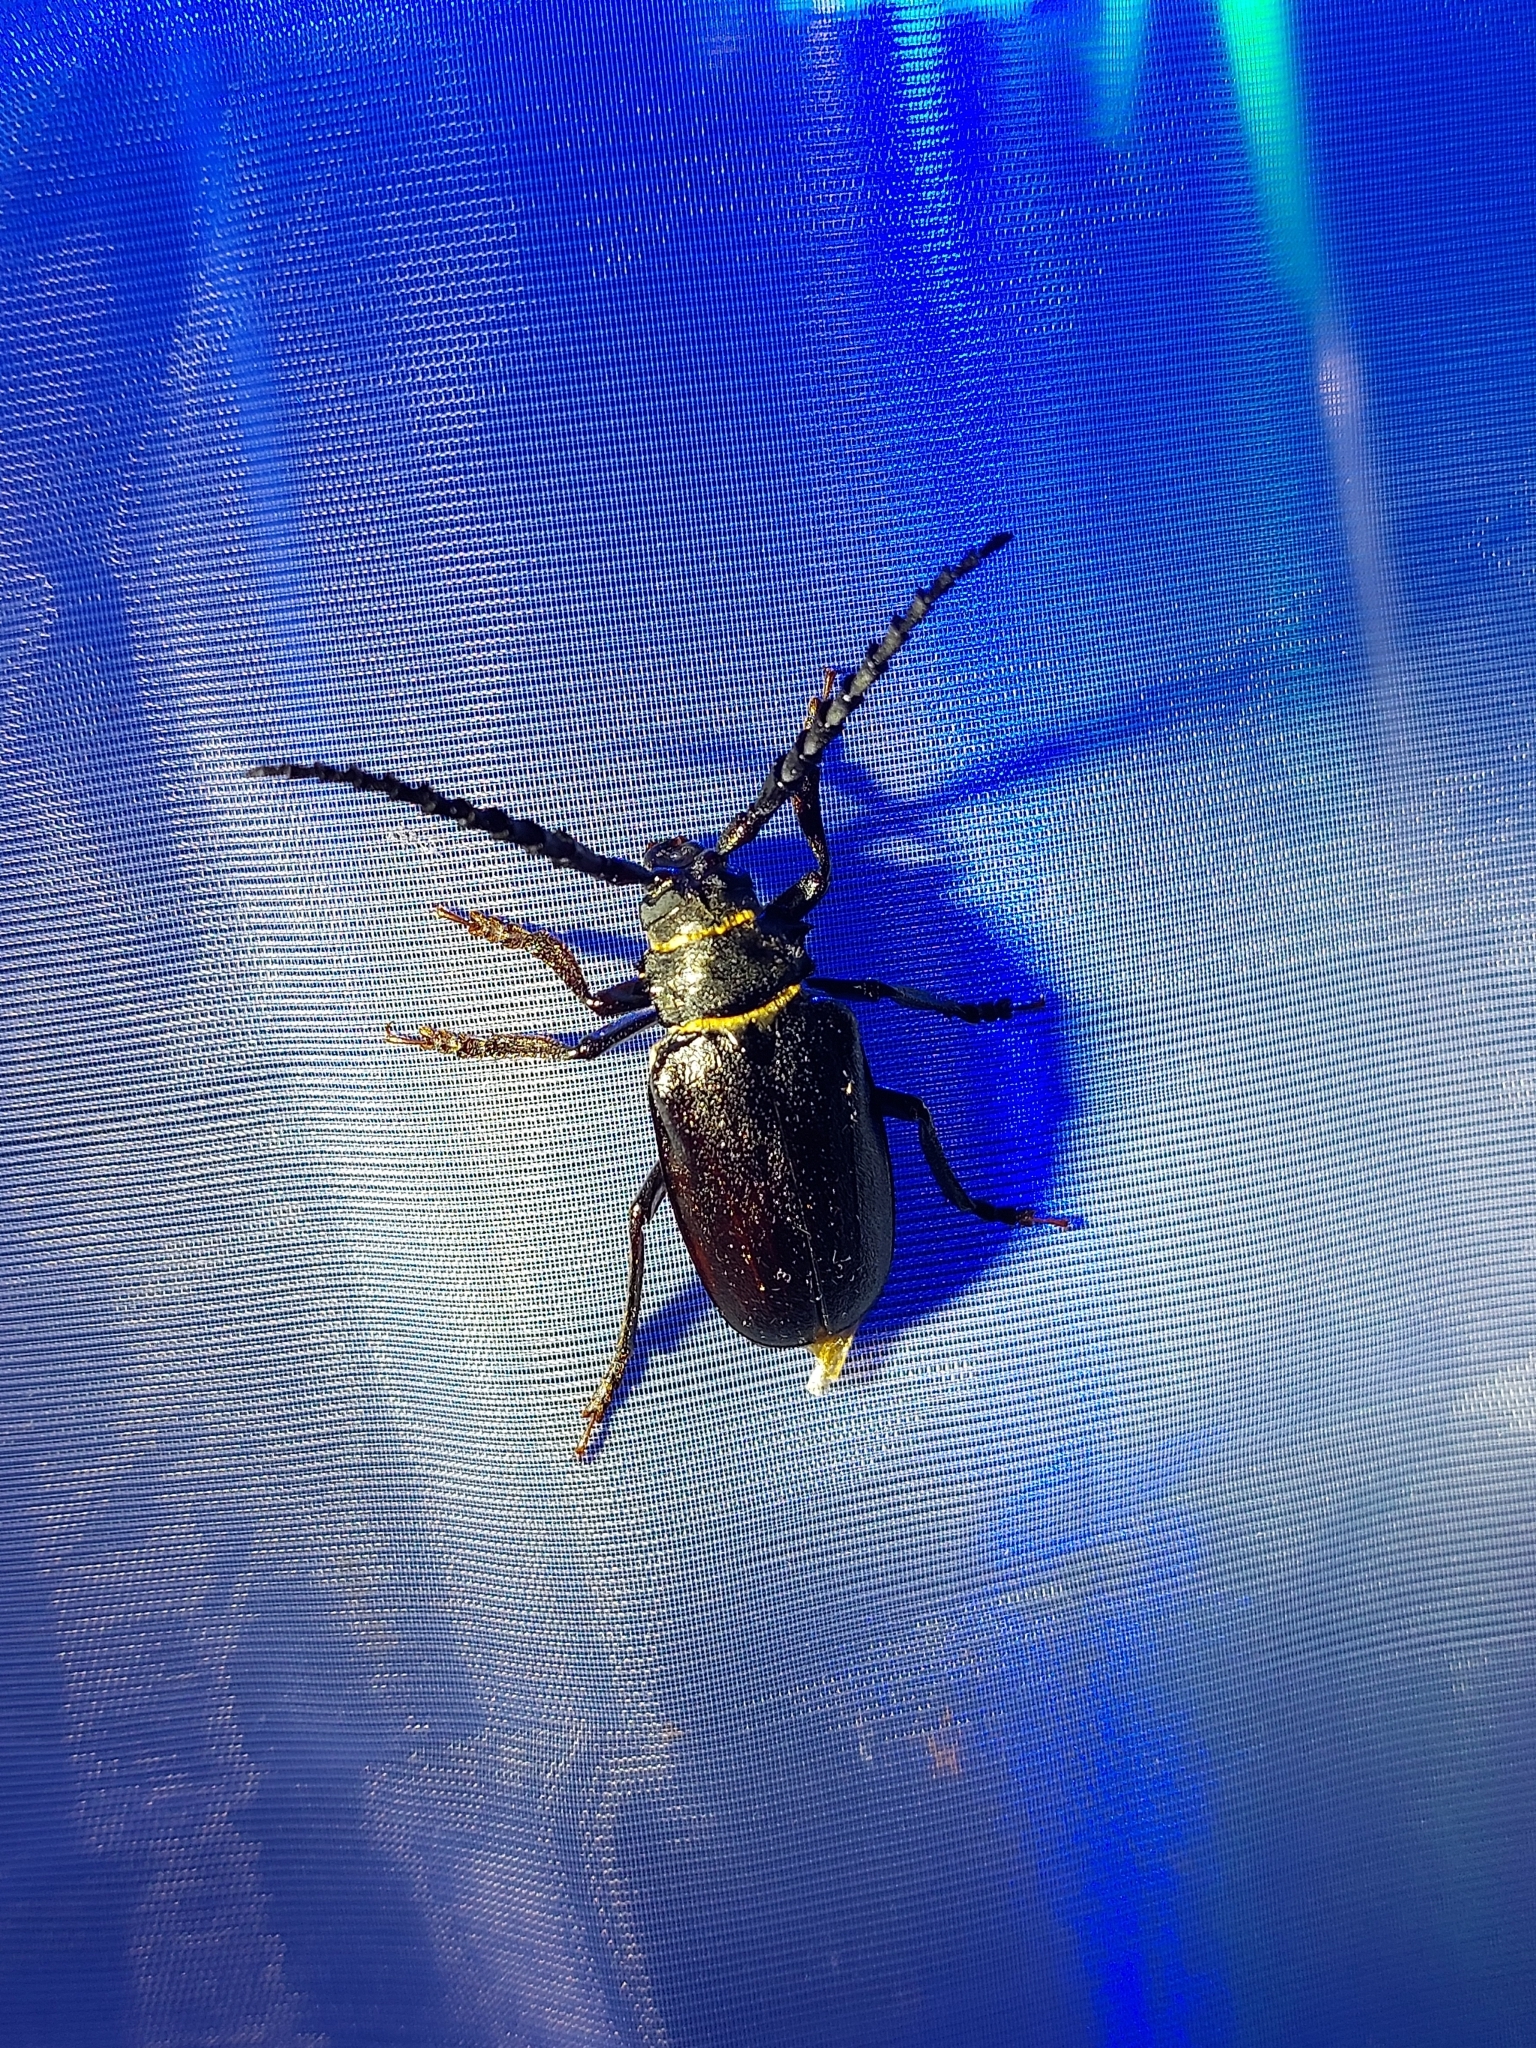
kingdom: Animalia
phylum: Arthropoda
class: Insecta
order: Coleoptera
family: Cerambycidae
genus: Prionus
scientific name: Prionus coriarius
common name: Tanner beetle
